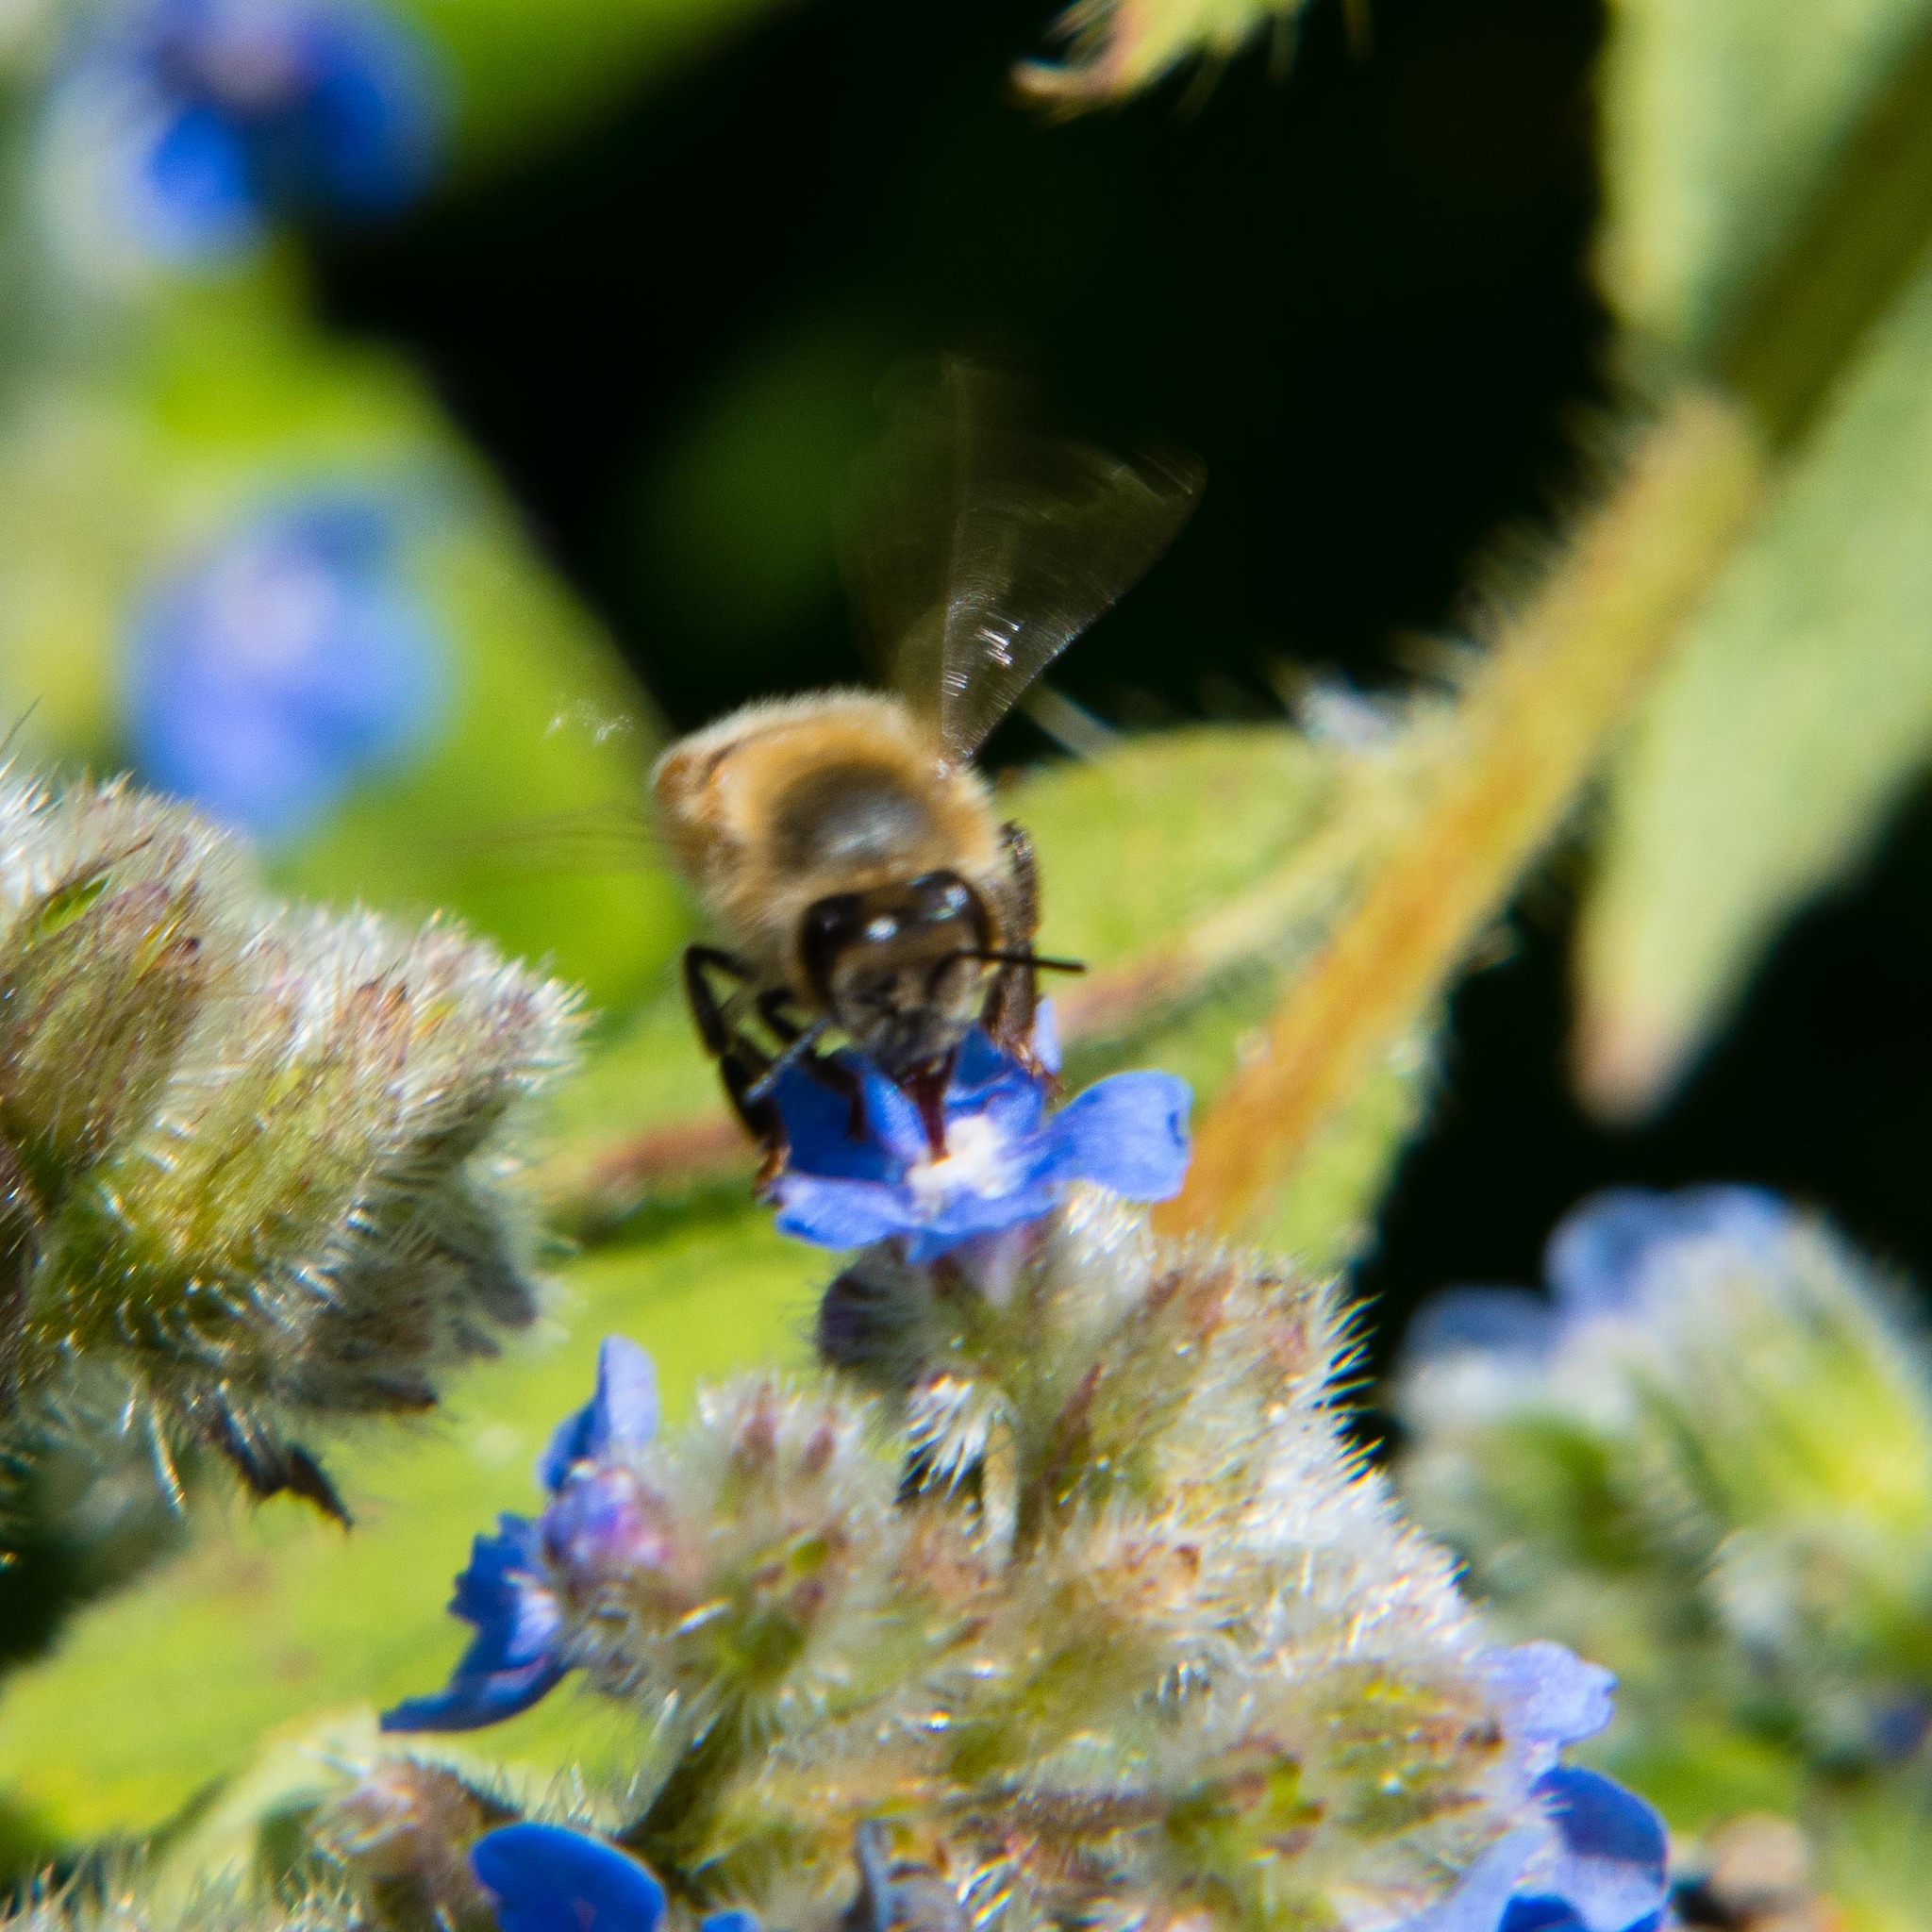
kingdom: Animalia
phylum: Arthropoda
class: Insecta
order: Hymenoptera
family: Apidae
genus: Apis
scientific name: Apis mellifera
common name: Honey bee
